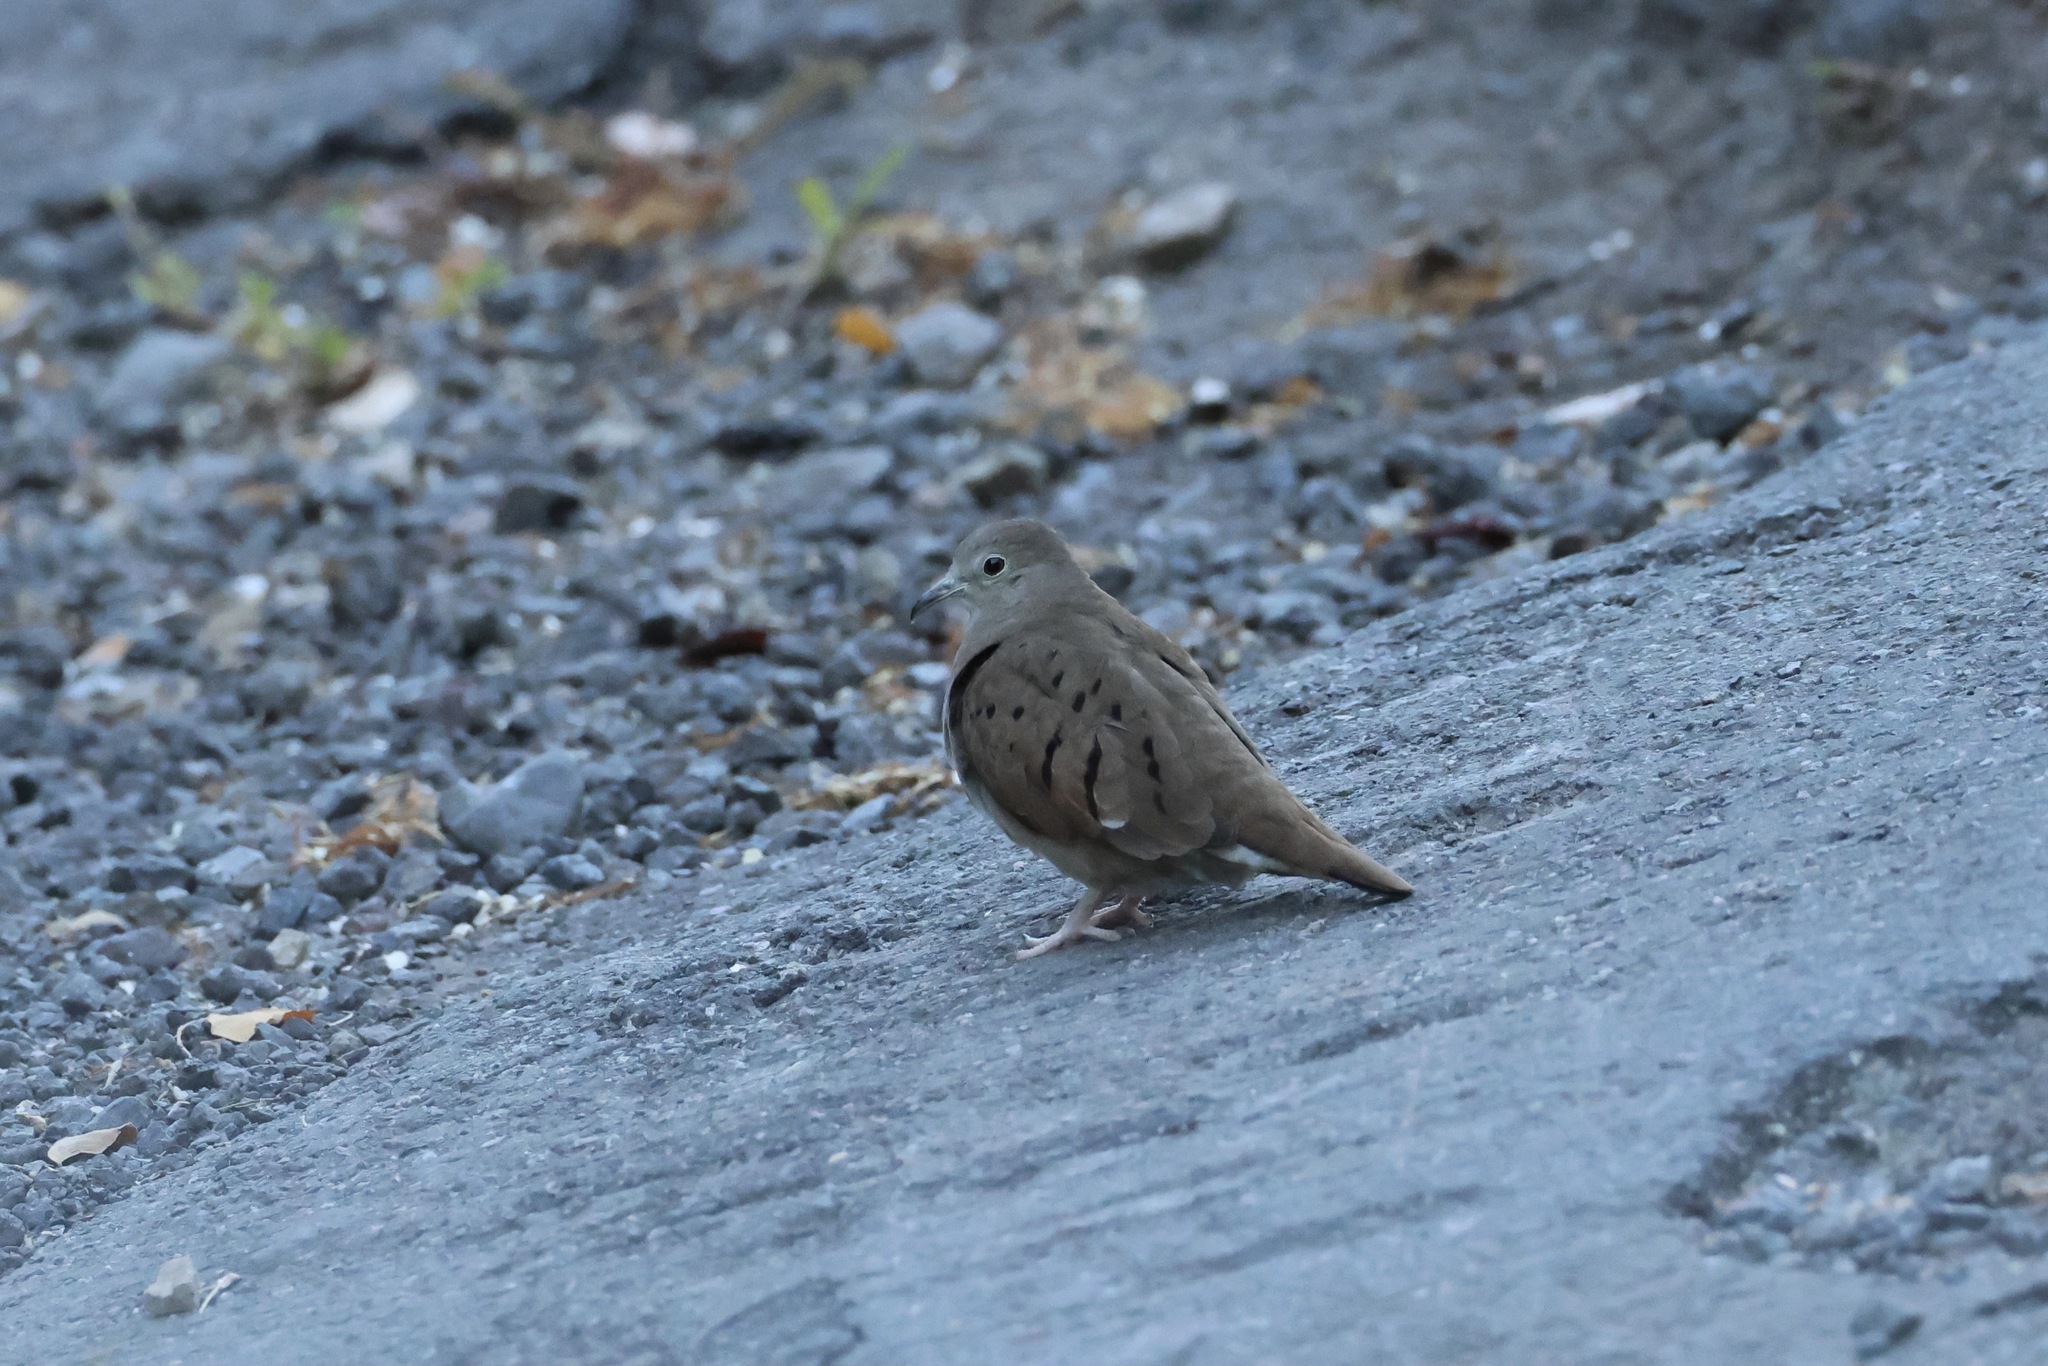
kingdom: Animalia
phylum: Chordata
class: Aves
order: Columbiformes
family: Columbidae
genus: Columbina
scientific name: Columbina talpacoti
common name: Ruddy ground dove
